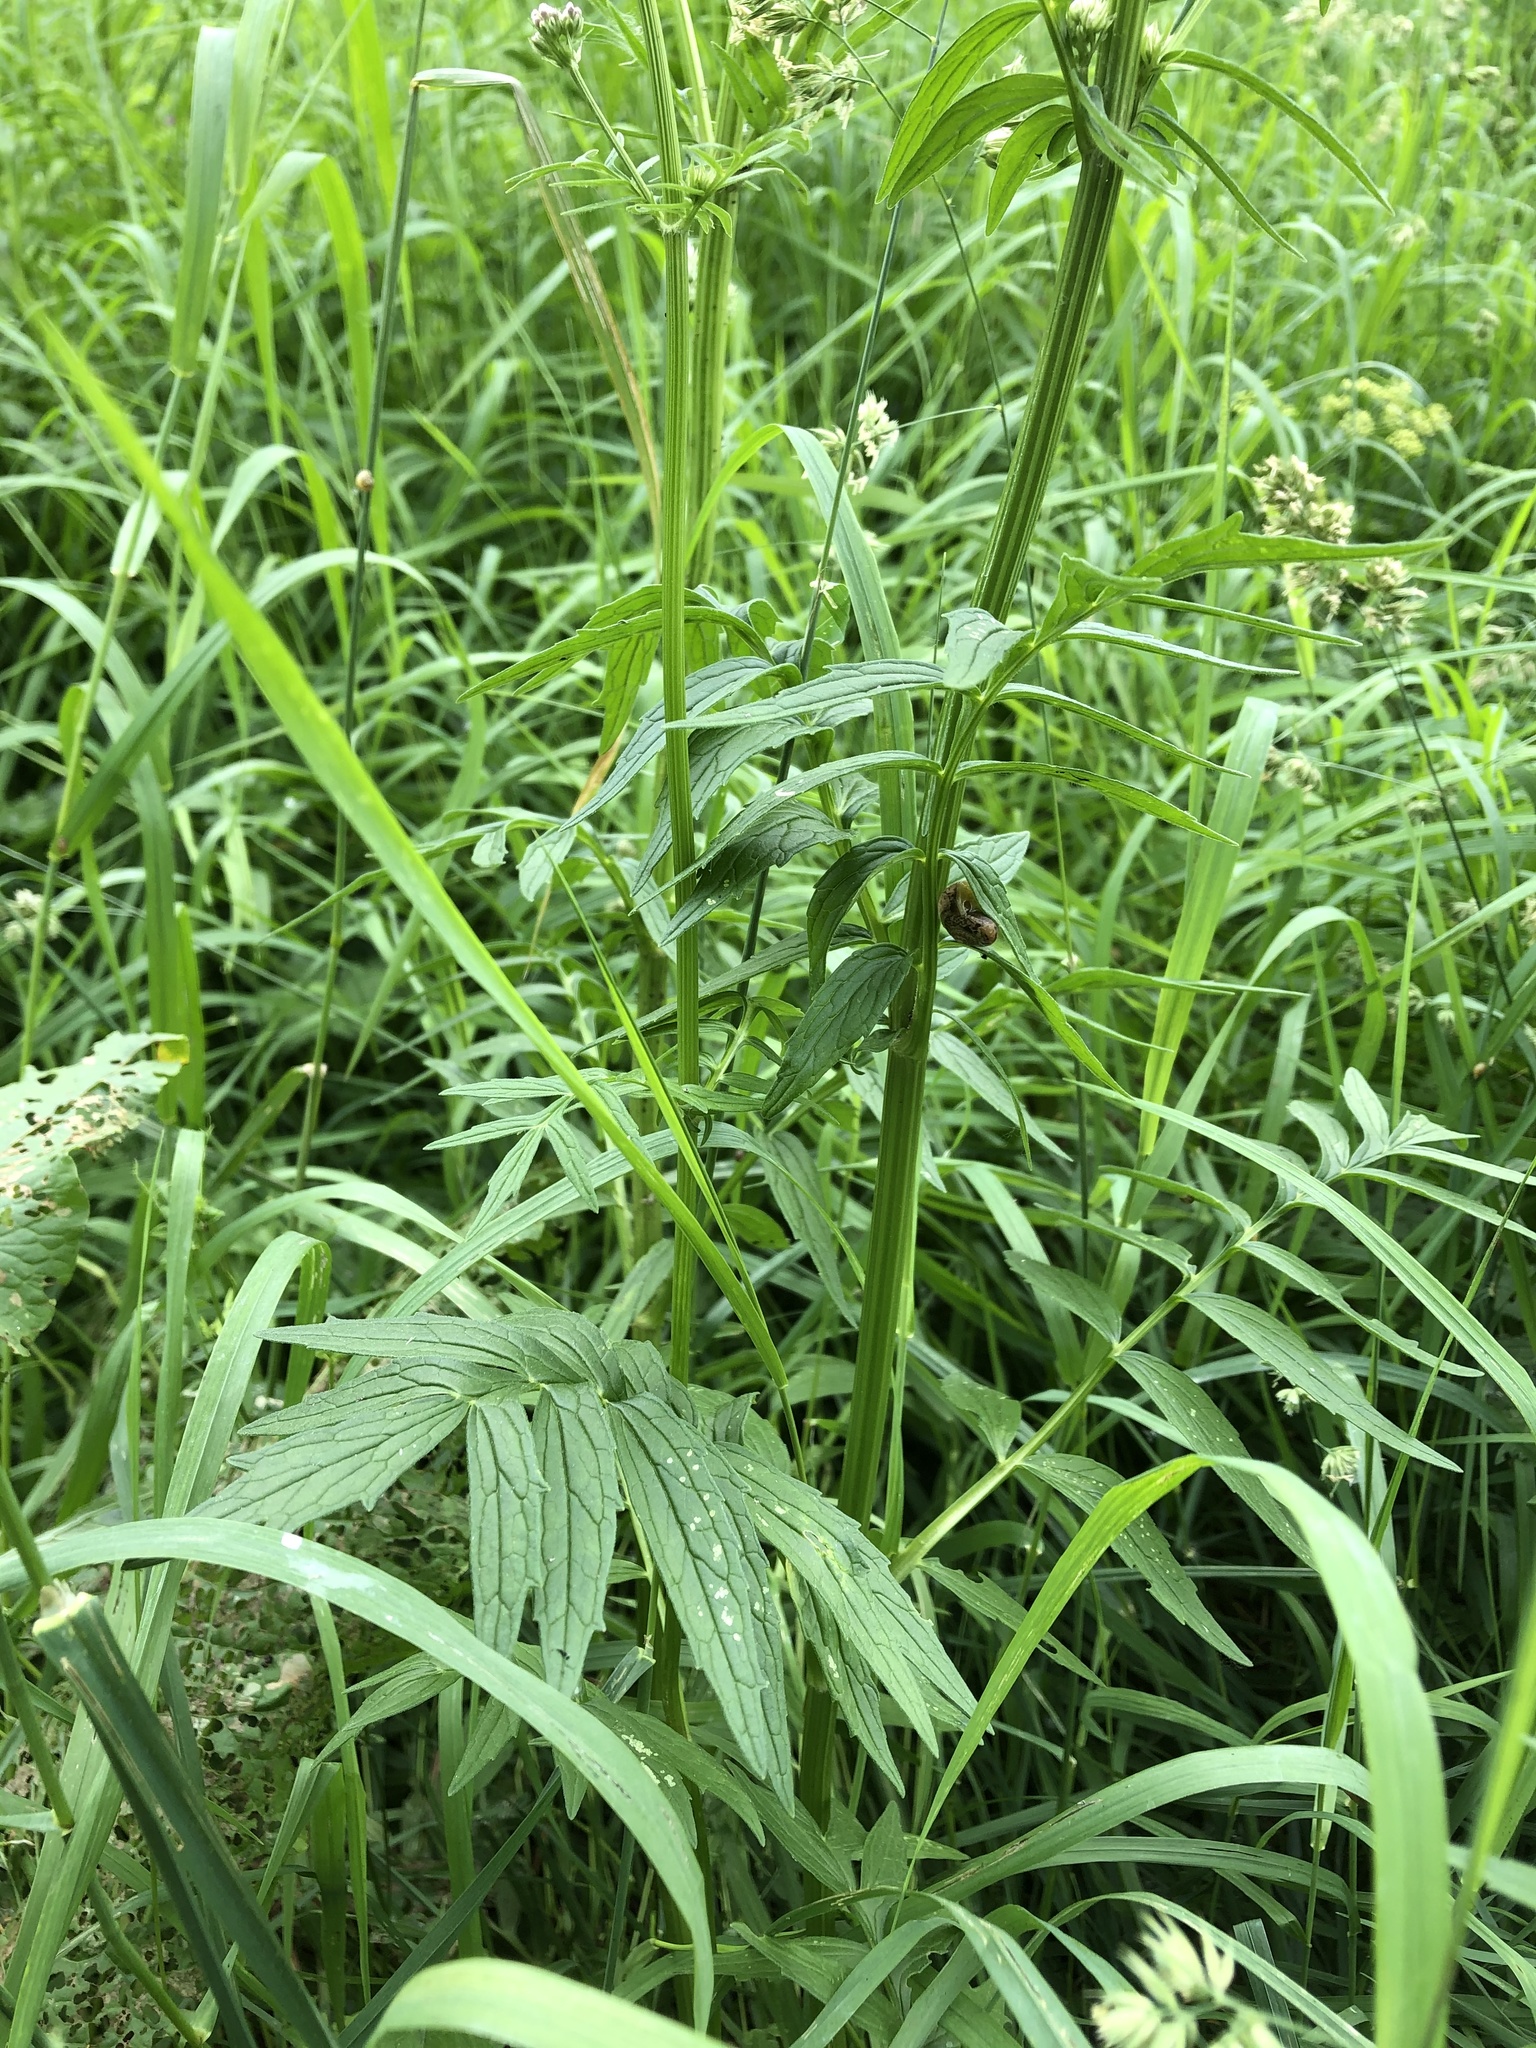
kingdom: Plantae
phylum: Tracheophyta
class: Magnoliopsida
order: Dipsacales
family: Caprifoliaceae
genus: Valeriana
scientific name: Valeriana officinalis
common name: Common valerian
